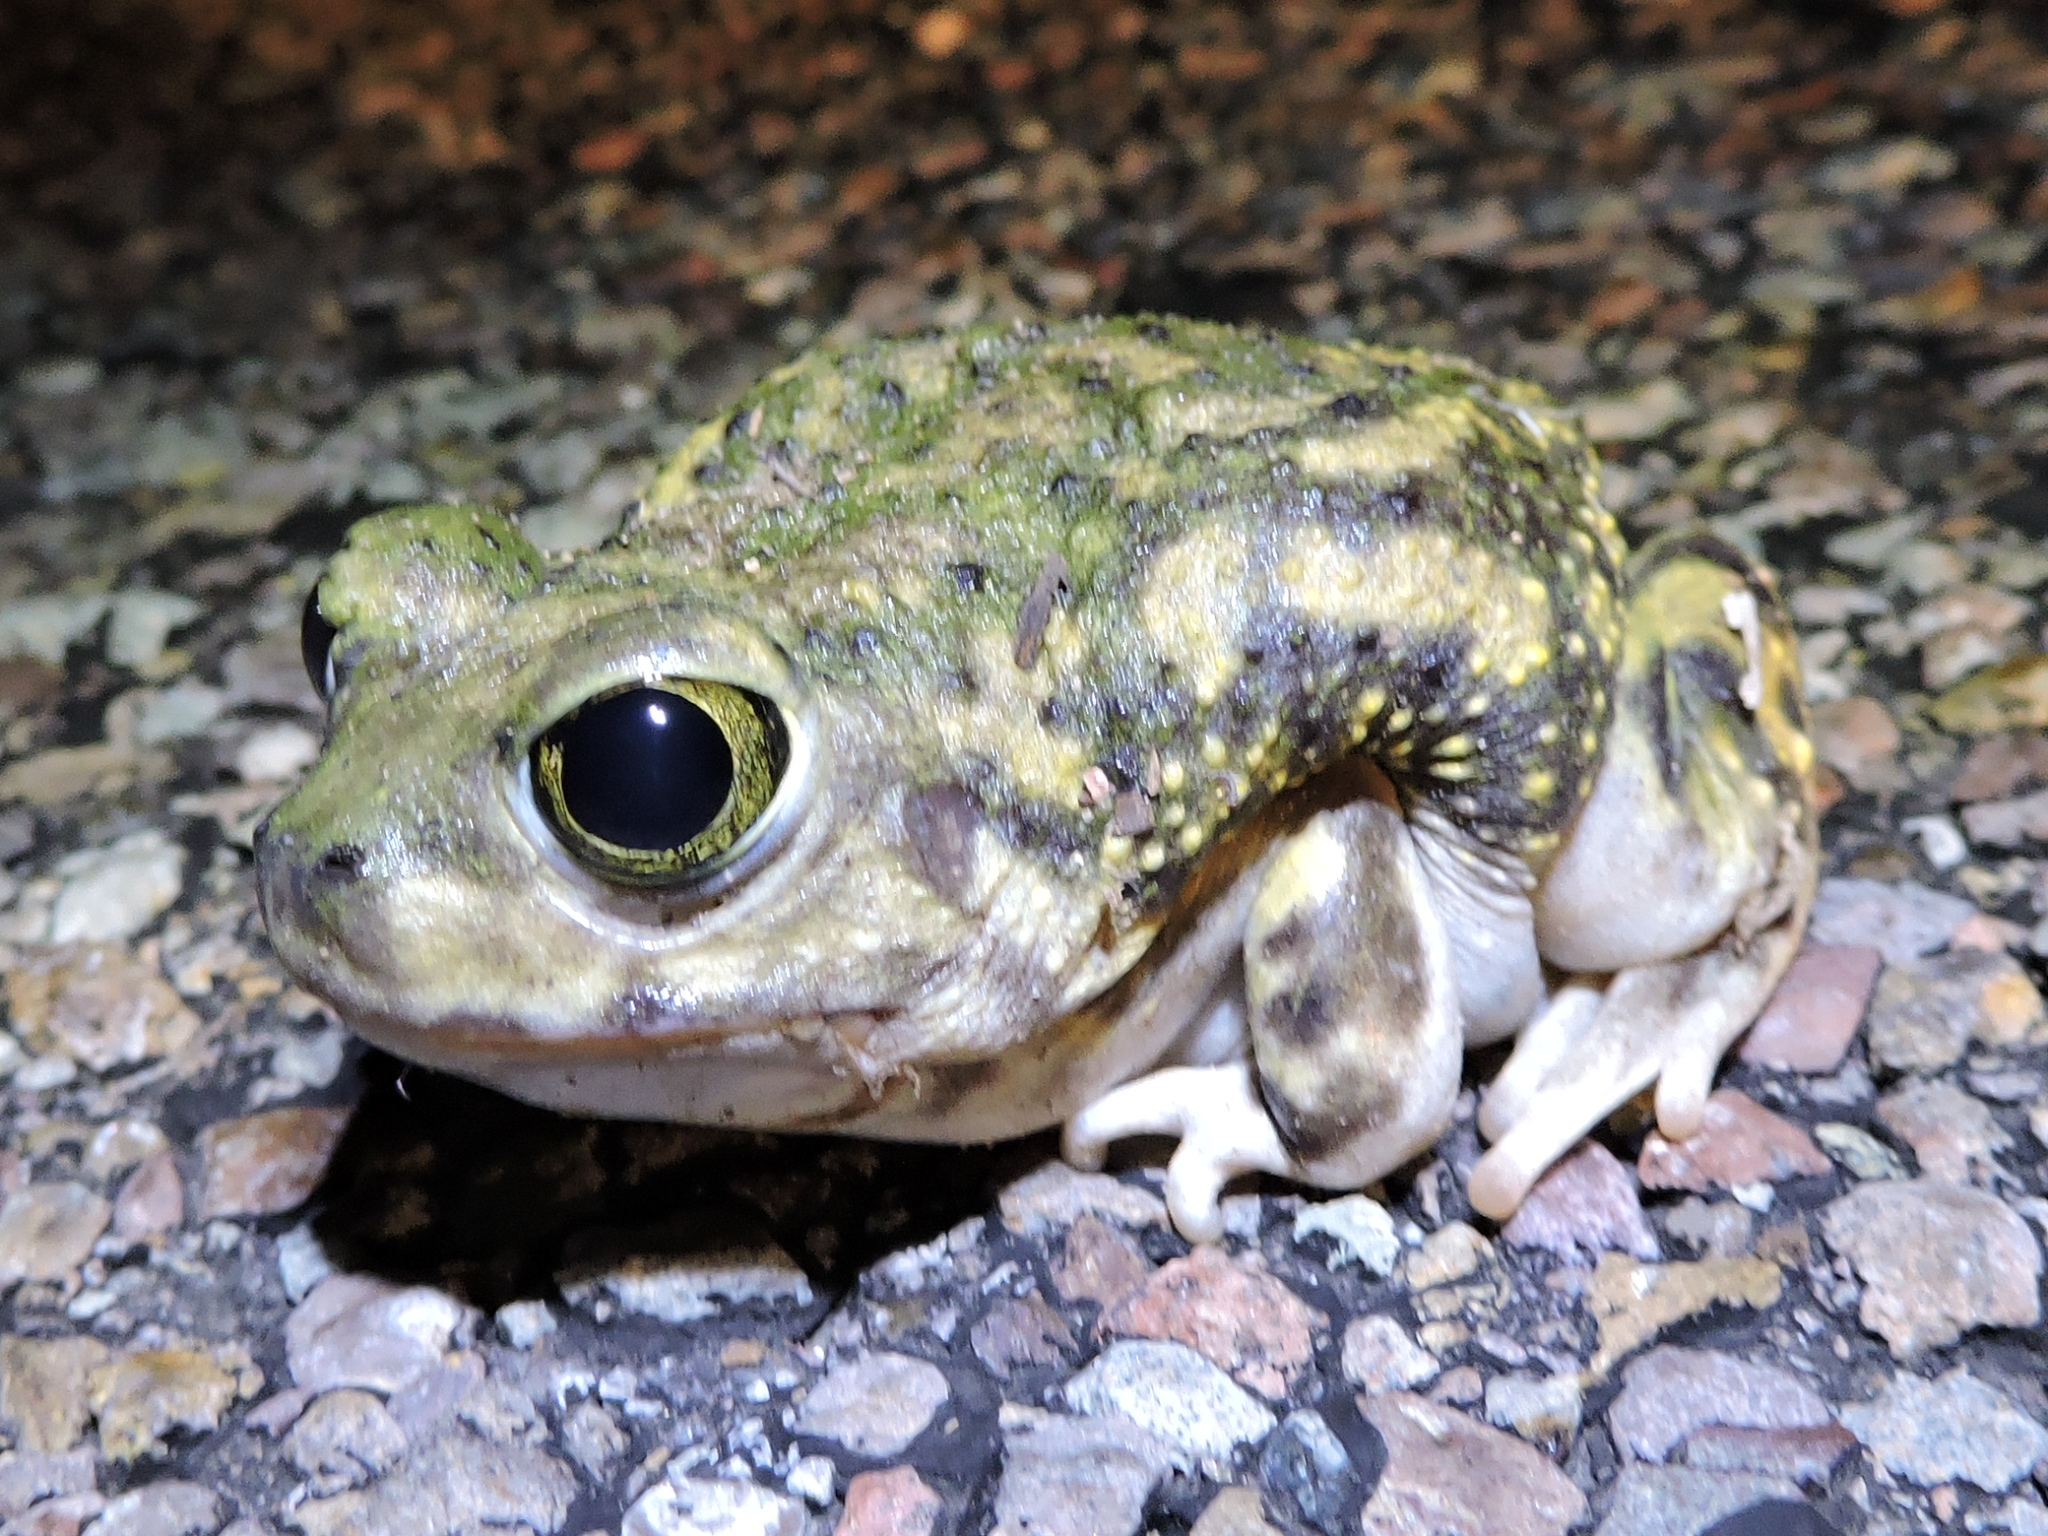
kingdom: Animalia
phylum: Chordata
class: Amphibia
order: Anura
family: Scaphiopodidae
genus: Scaphiopus
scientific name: Scaphiopus couchii
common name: Couch's spadefoot toad
